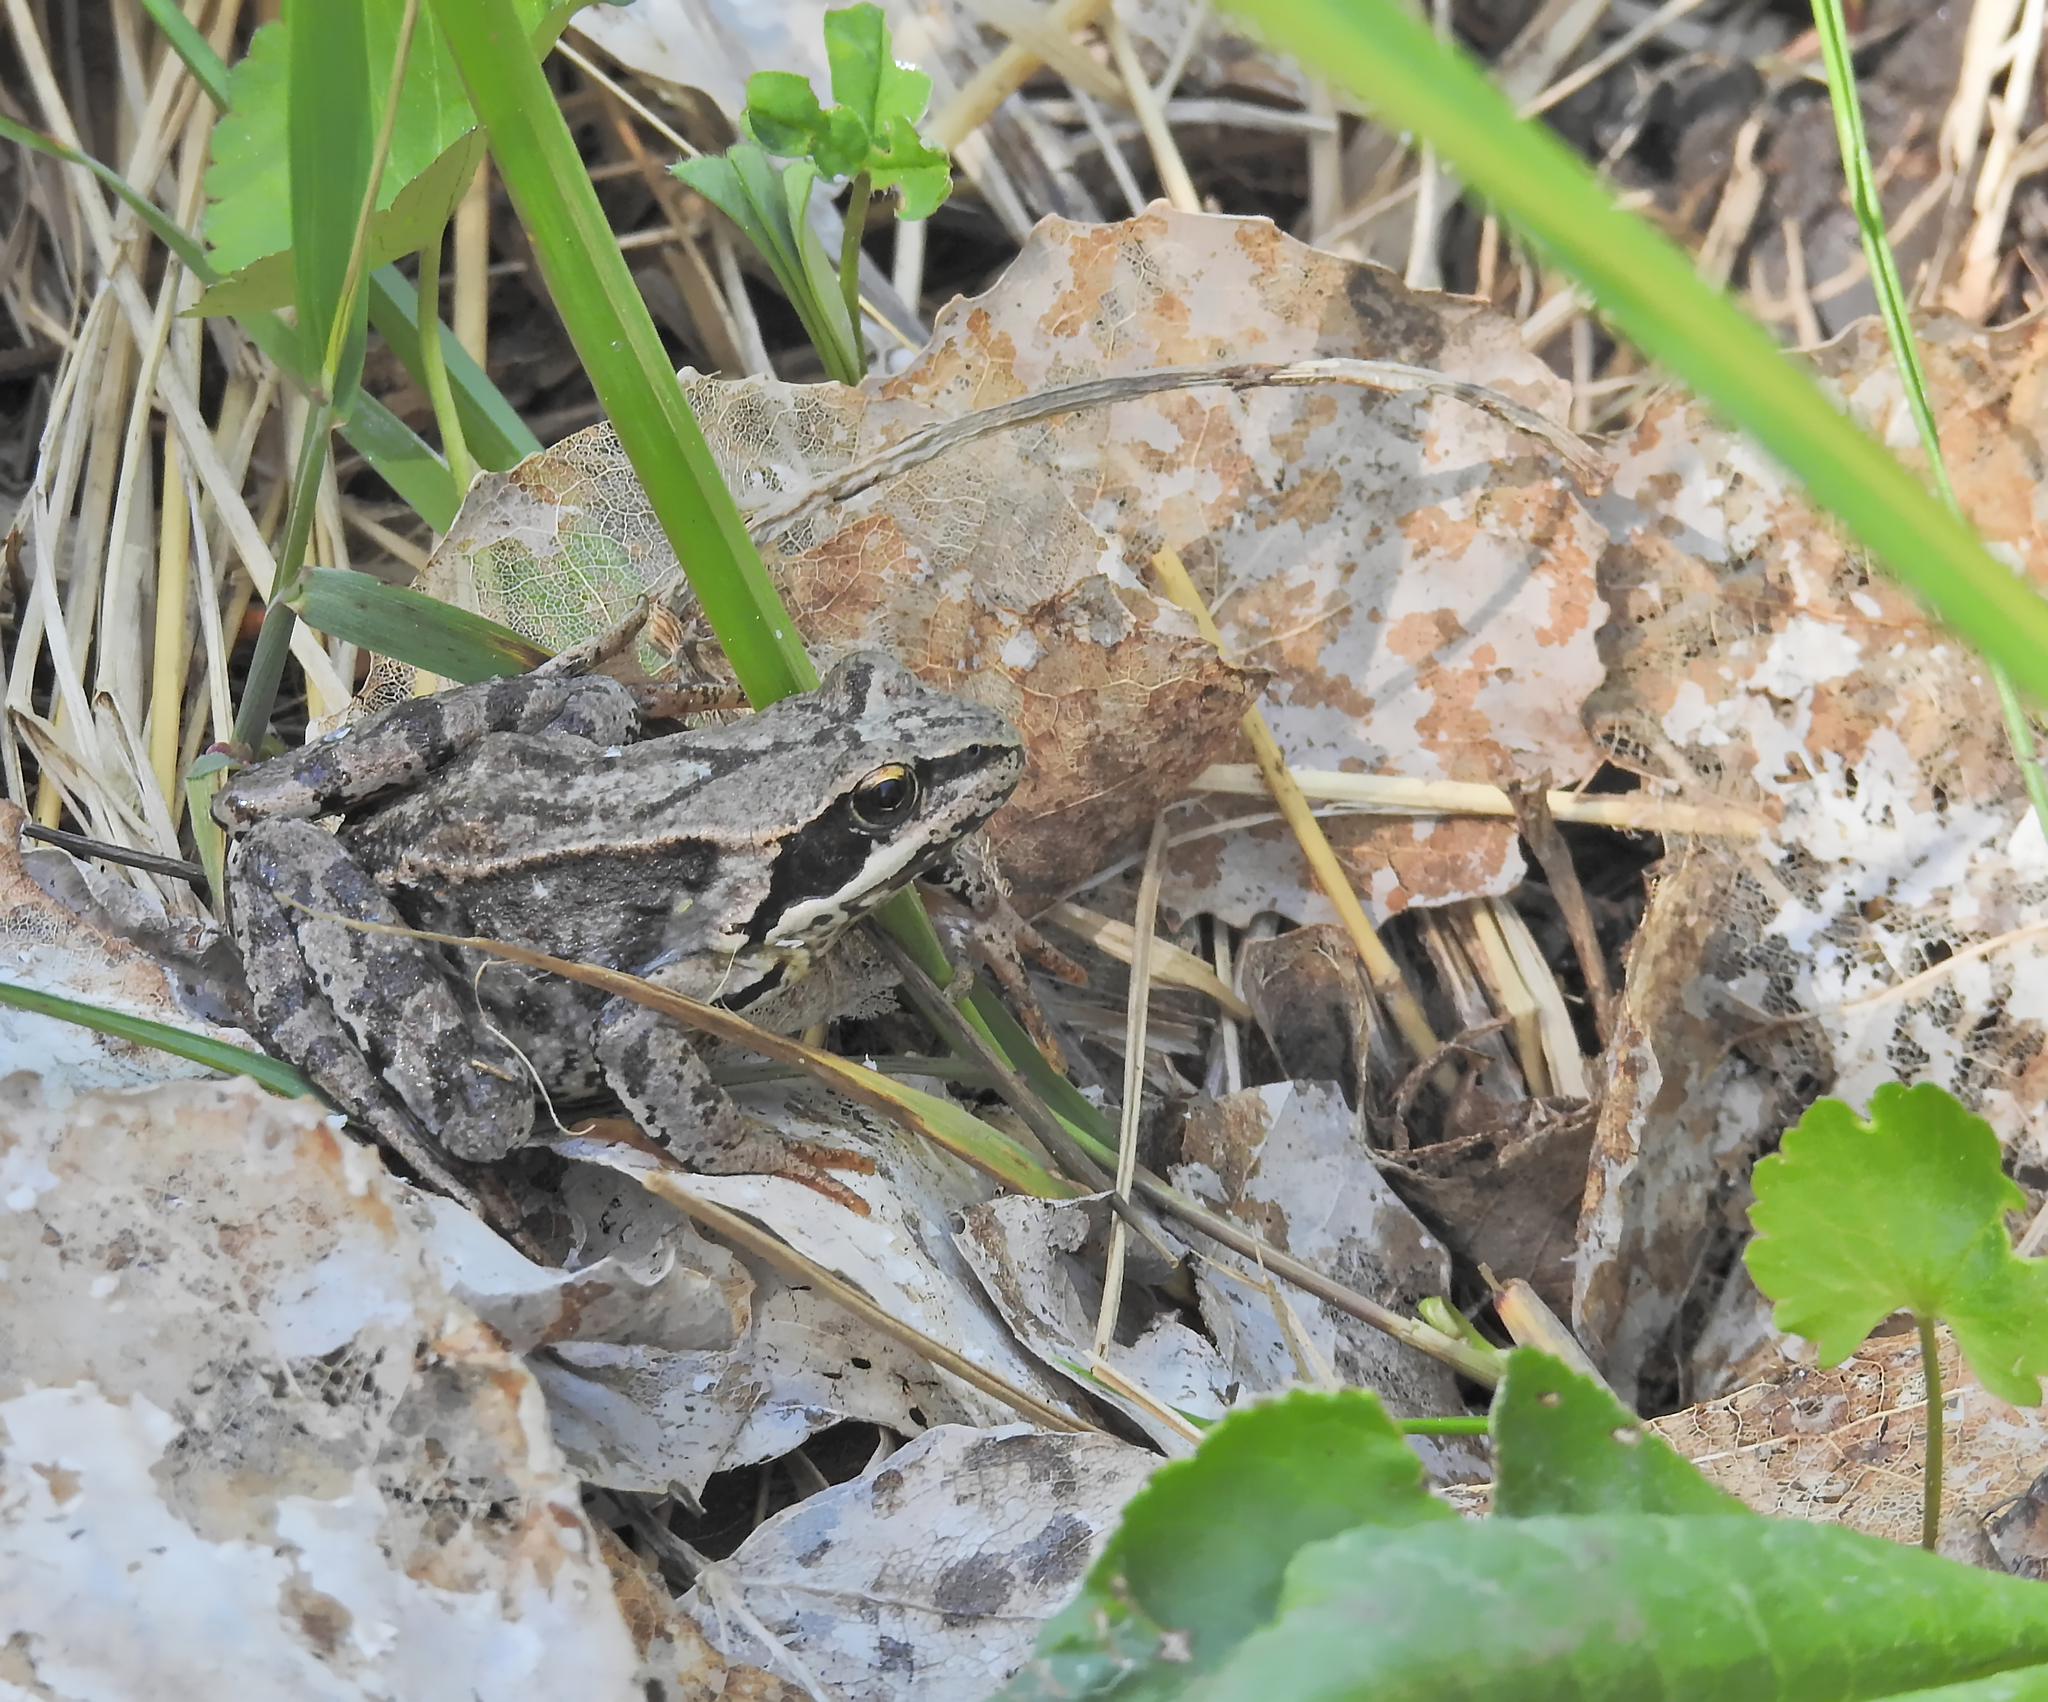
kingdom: Animalia
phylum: Chordata
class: Amphibia
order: Anura
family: Ranidae
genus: Rana
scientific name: Rana temporaria
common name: Common frog
